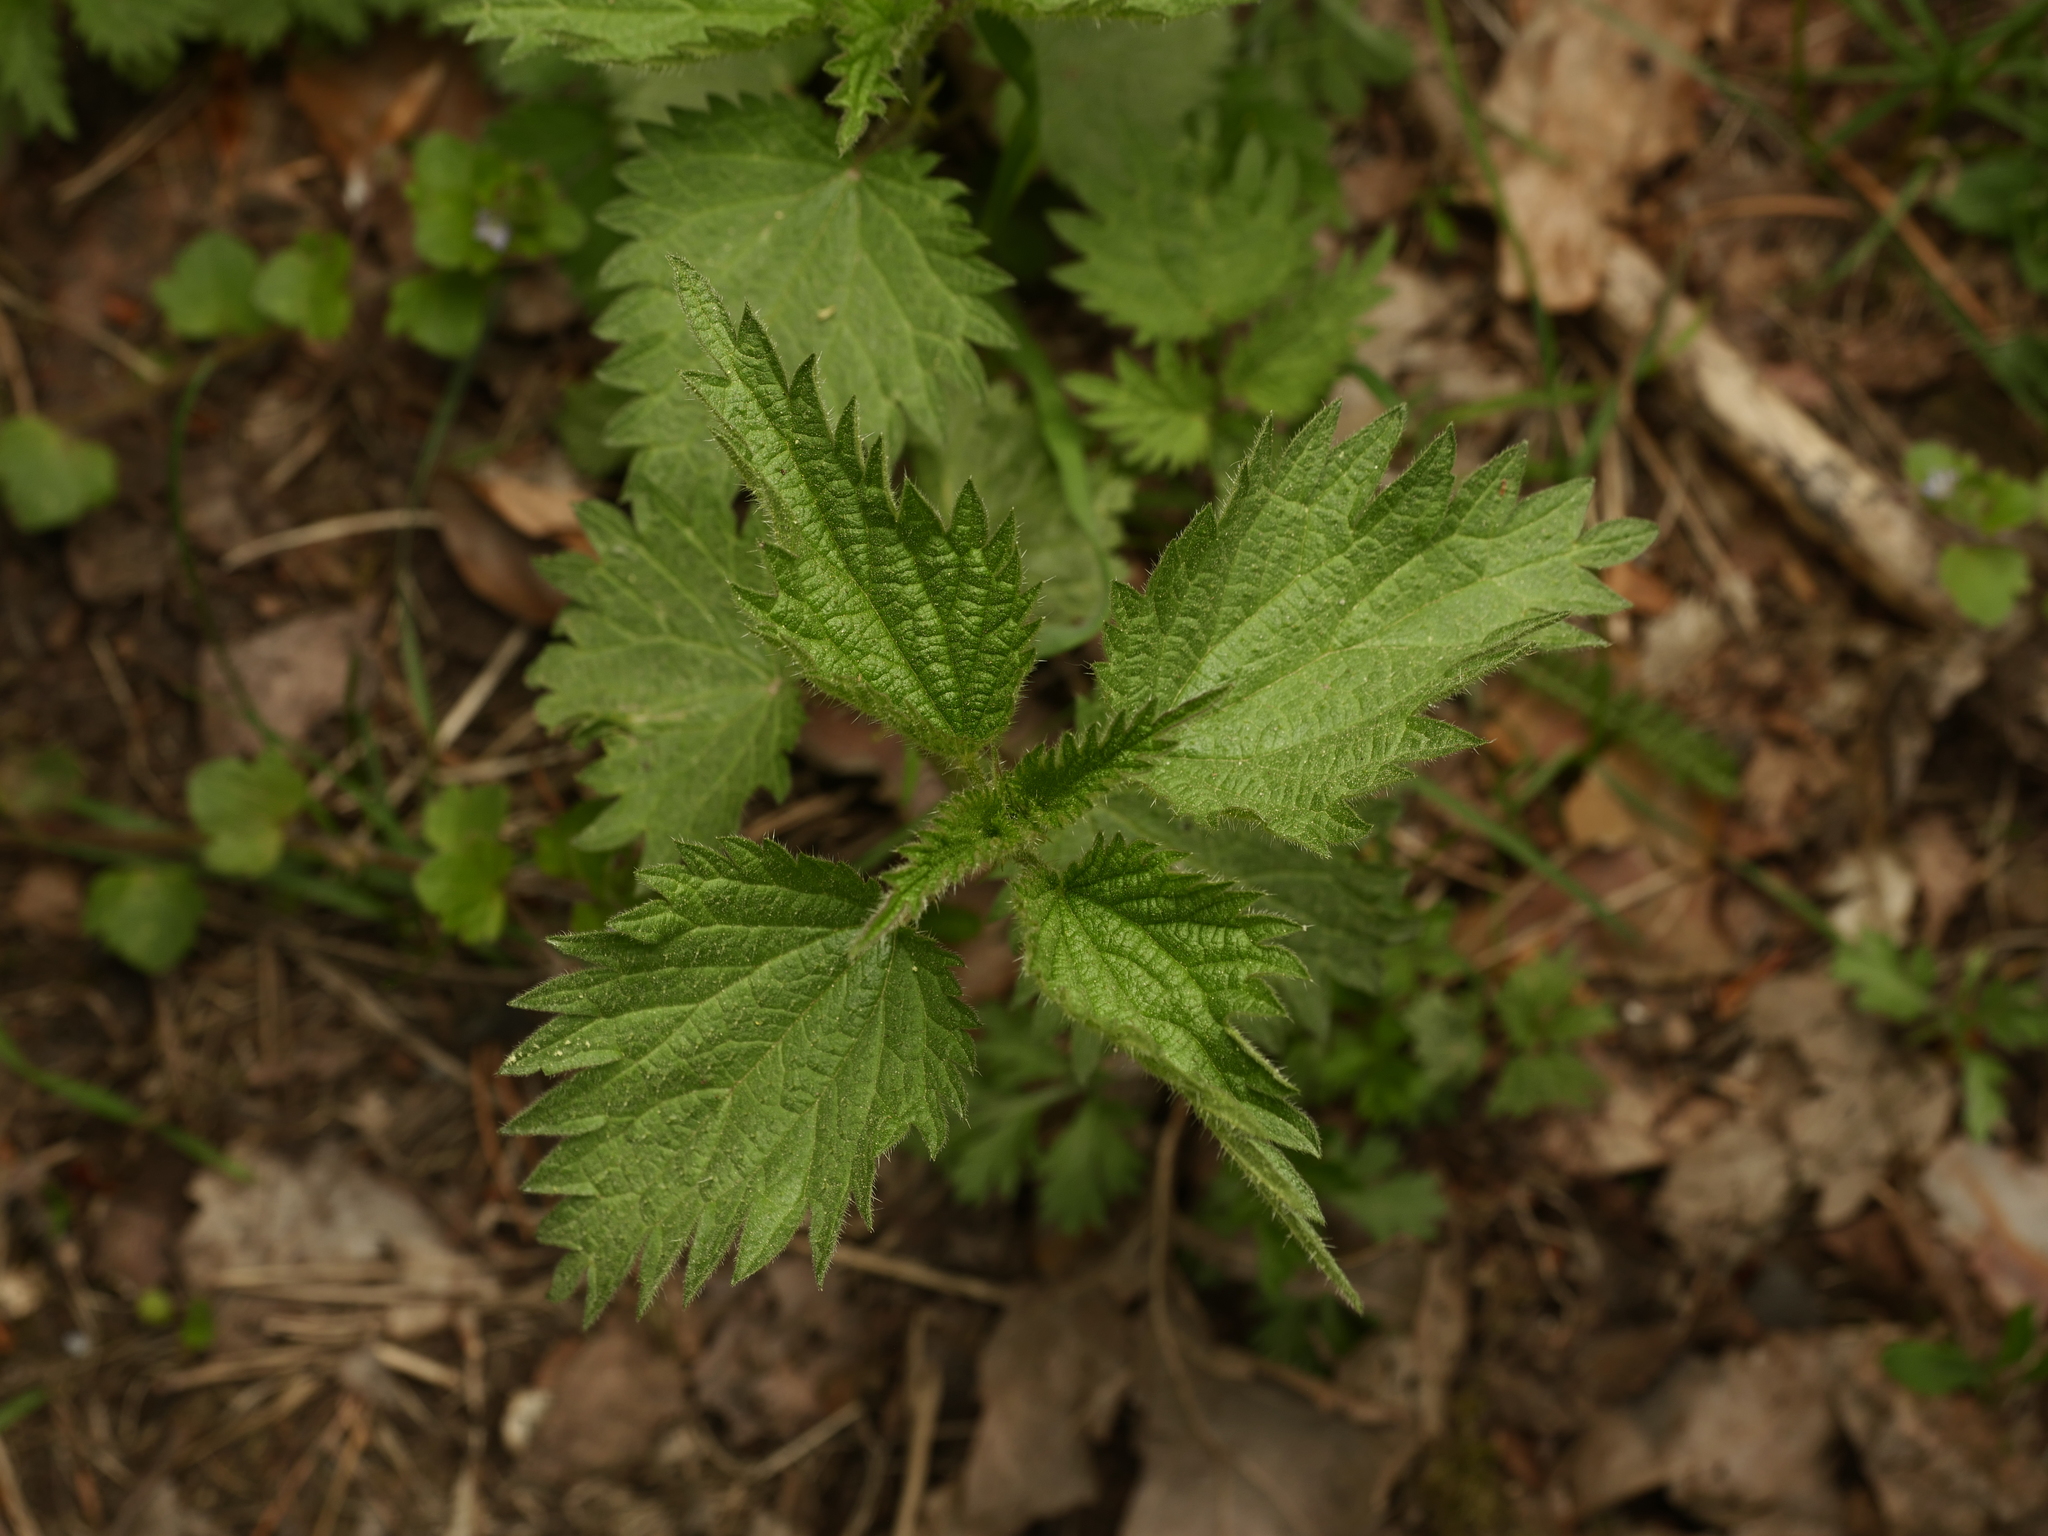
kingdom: Plantae
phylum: Tracheophyta
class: Magnoliopsida
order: Rosales
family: Urticaceae
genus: Urtica
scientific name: Urtica dioica
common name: Common nettle
